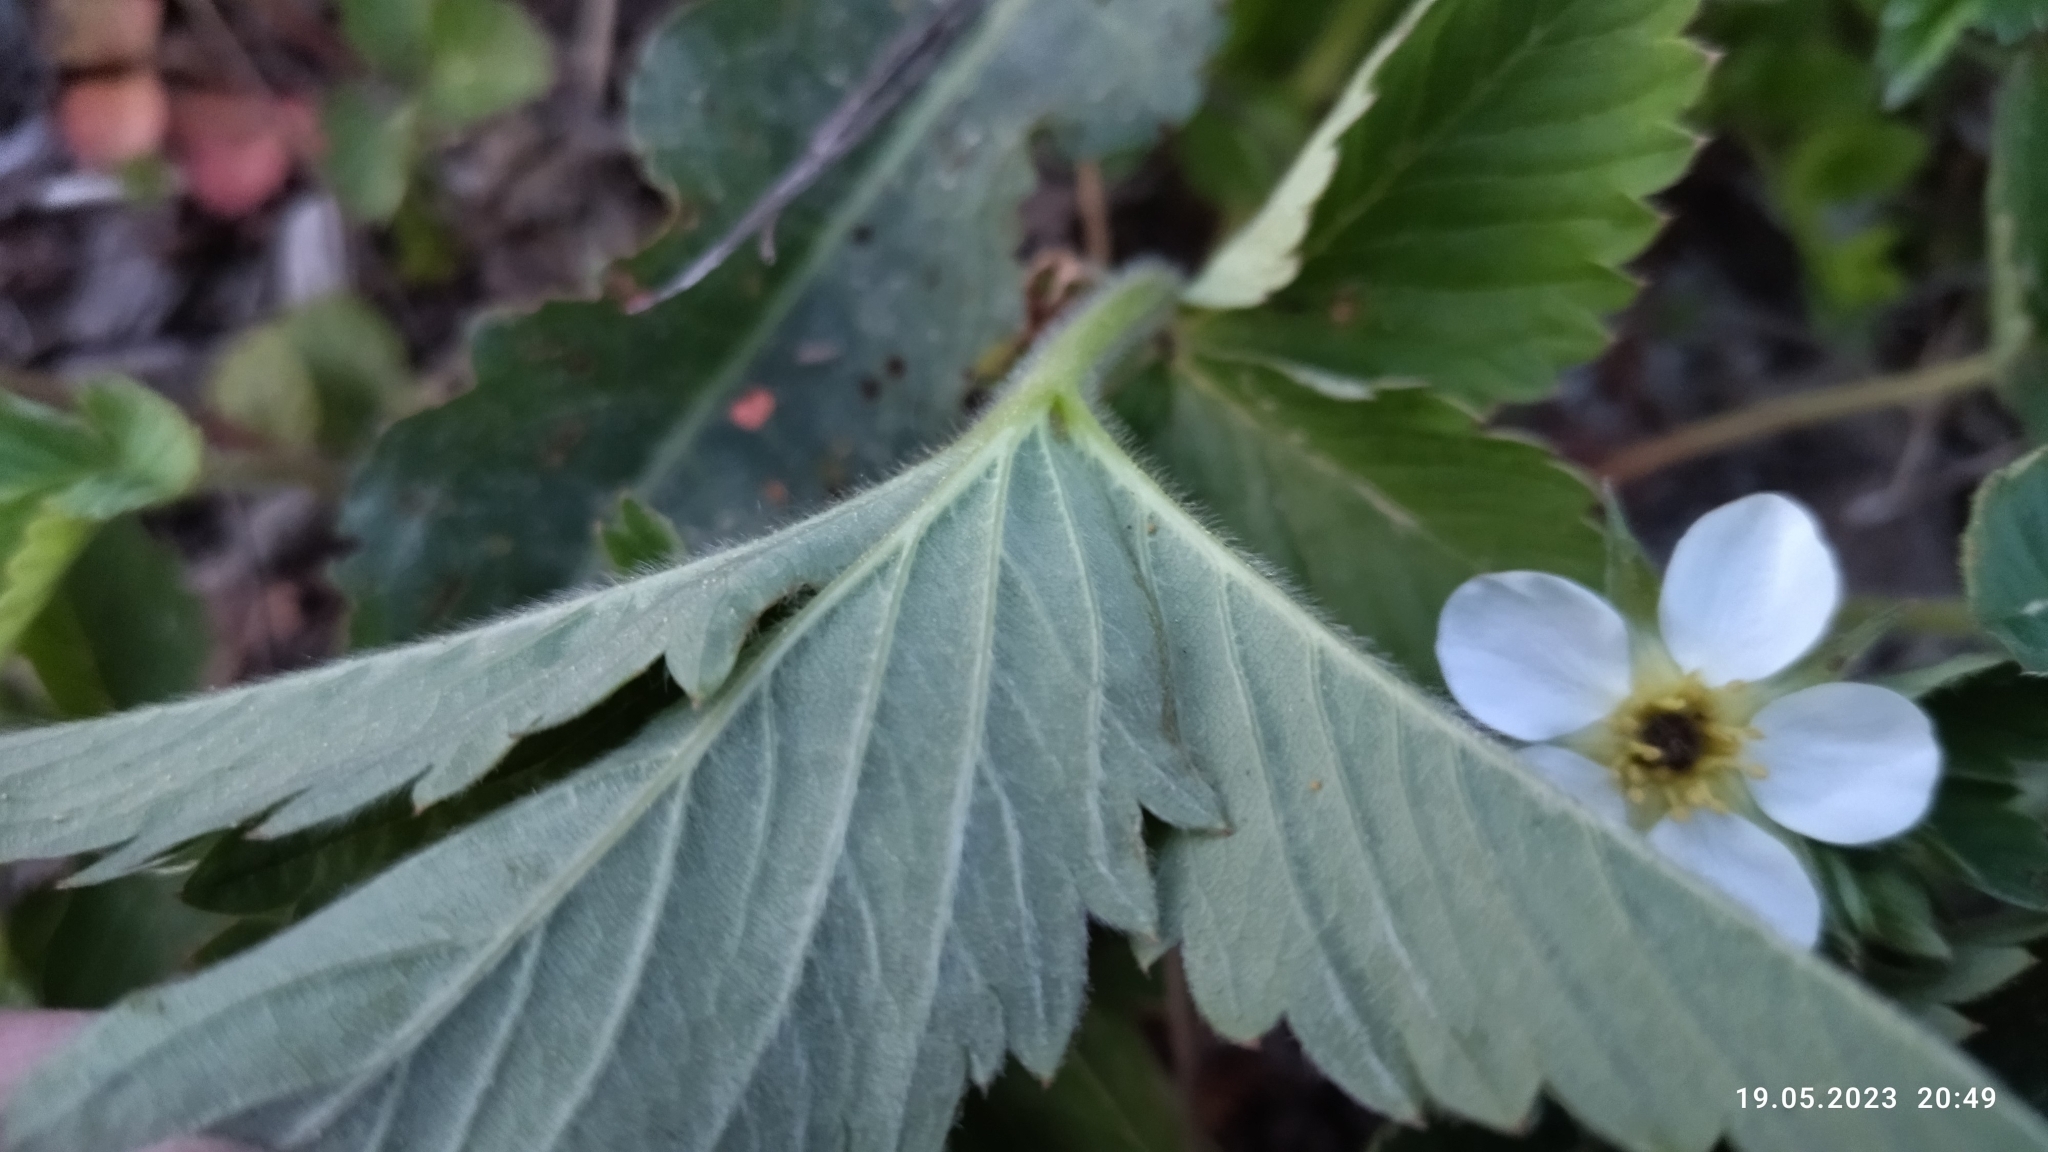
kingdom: Plantae
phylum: Tracheophyta
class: Magnoliopsida
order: Rosales
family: Rosaceae
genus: Fragaria
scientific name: Fragaria ananassa
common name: Garden strawberry
